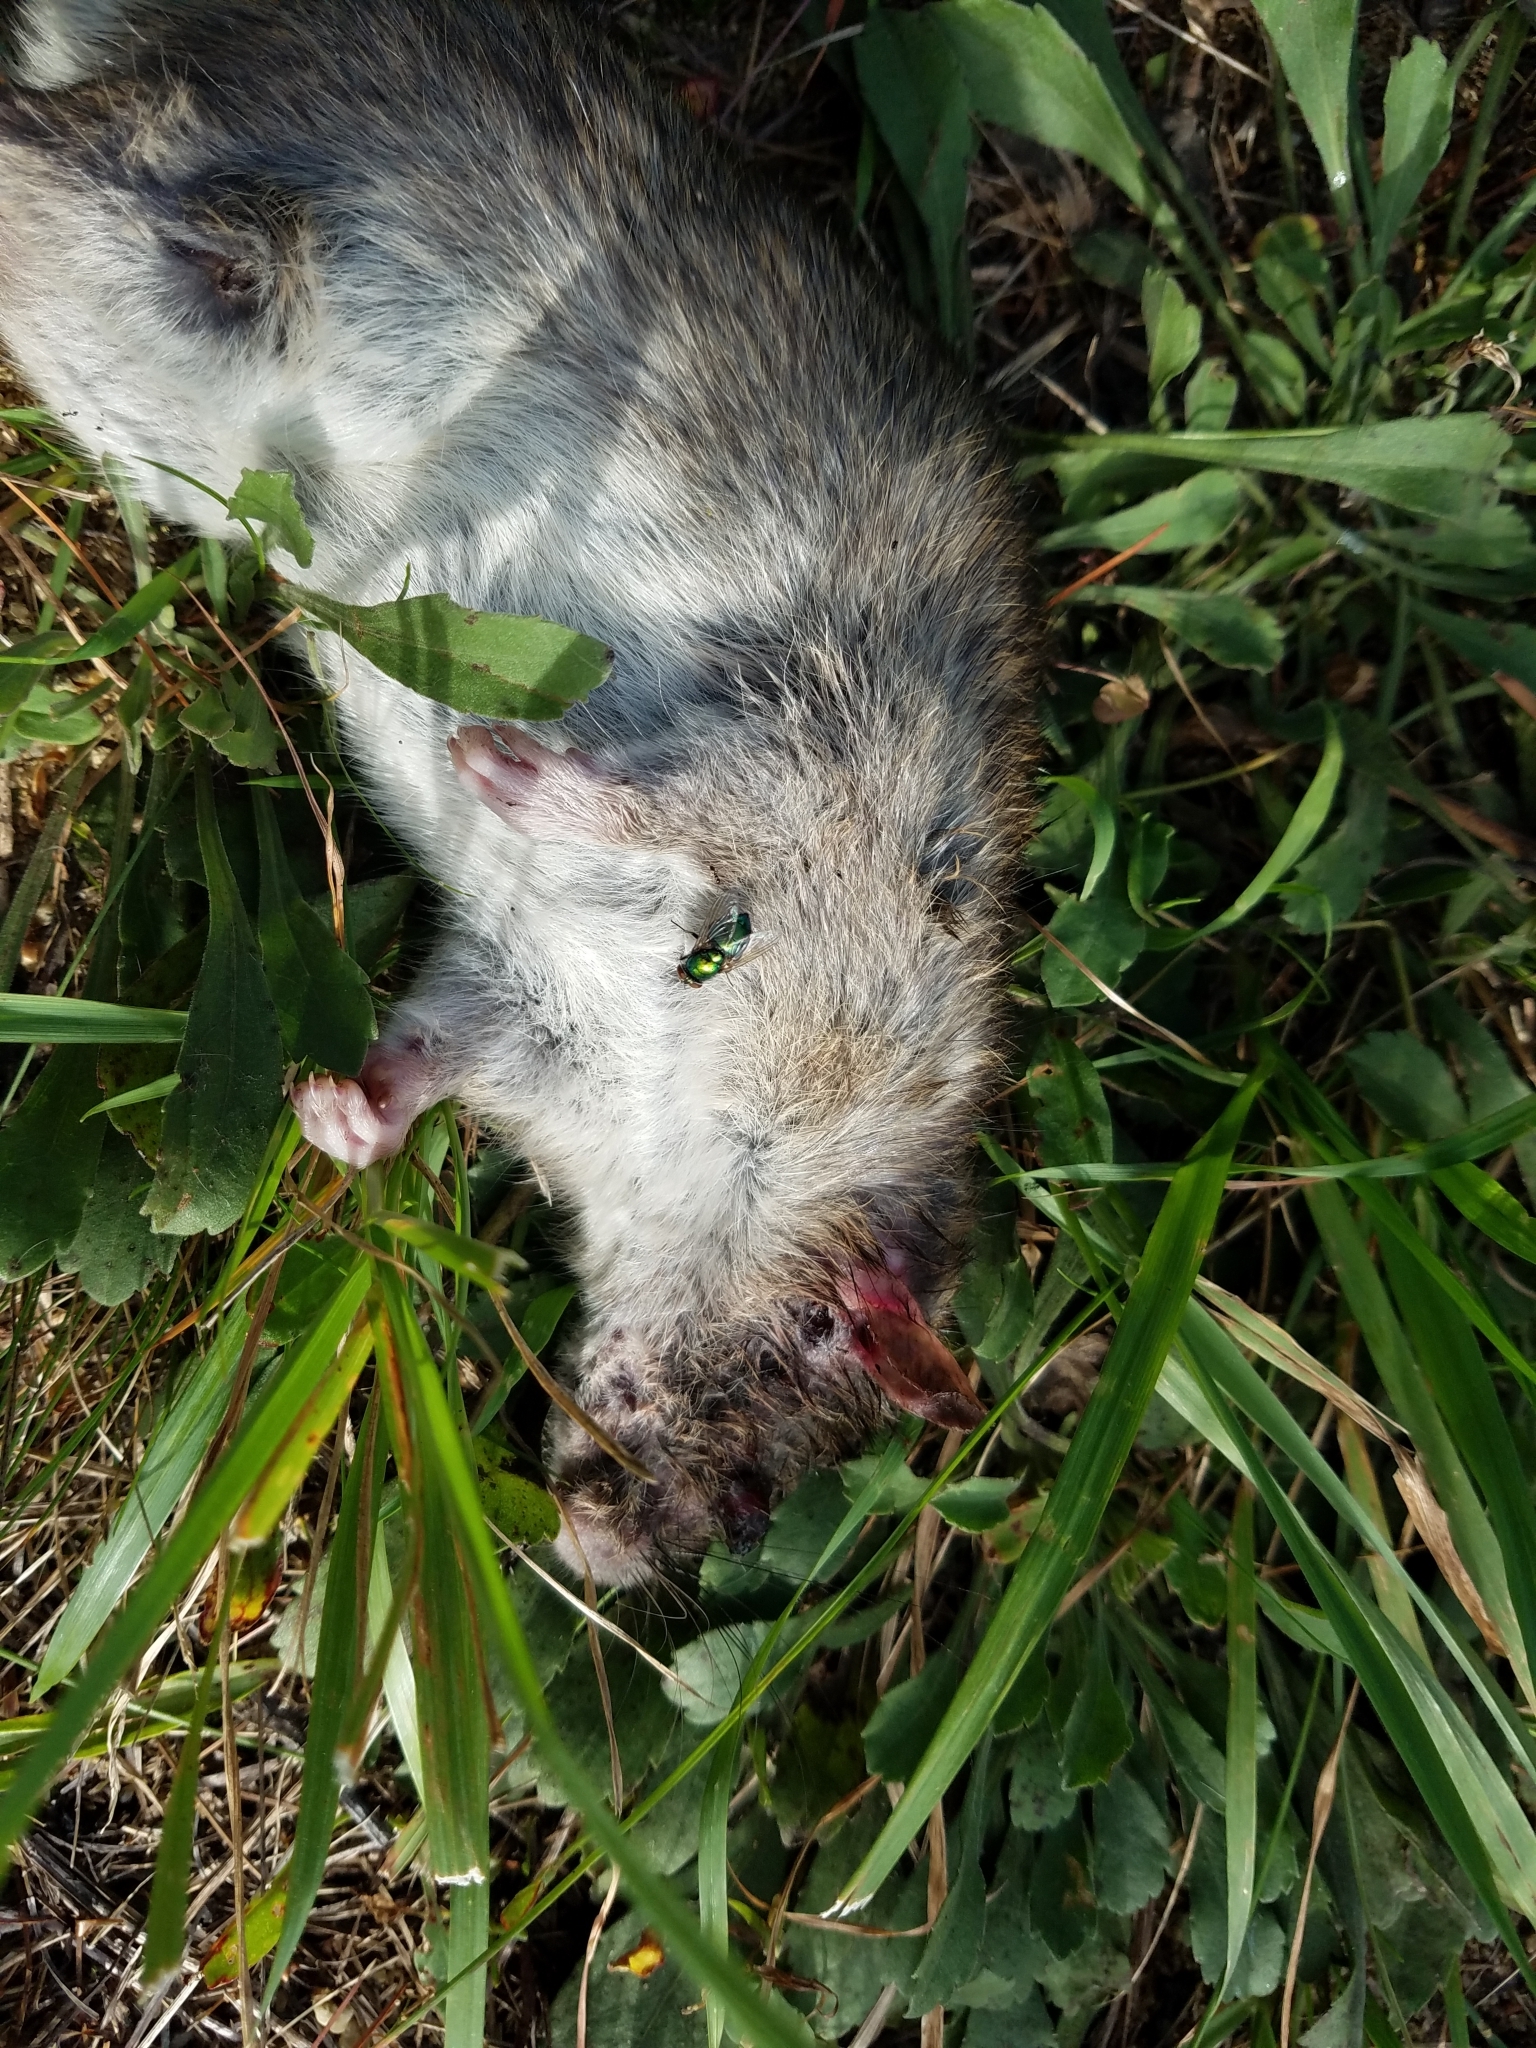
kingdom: Animalia
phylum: Chordata
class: Mammalia
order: Rodentia
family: Muridae
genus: Rattus
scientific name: Rattus norvegicus
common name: Brown rat
